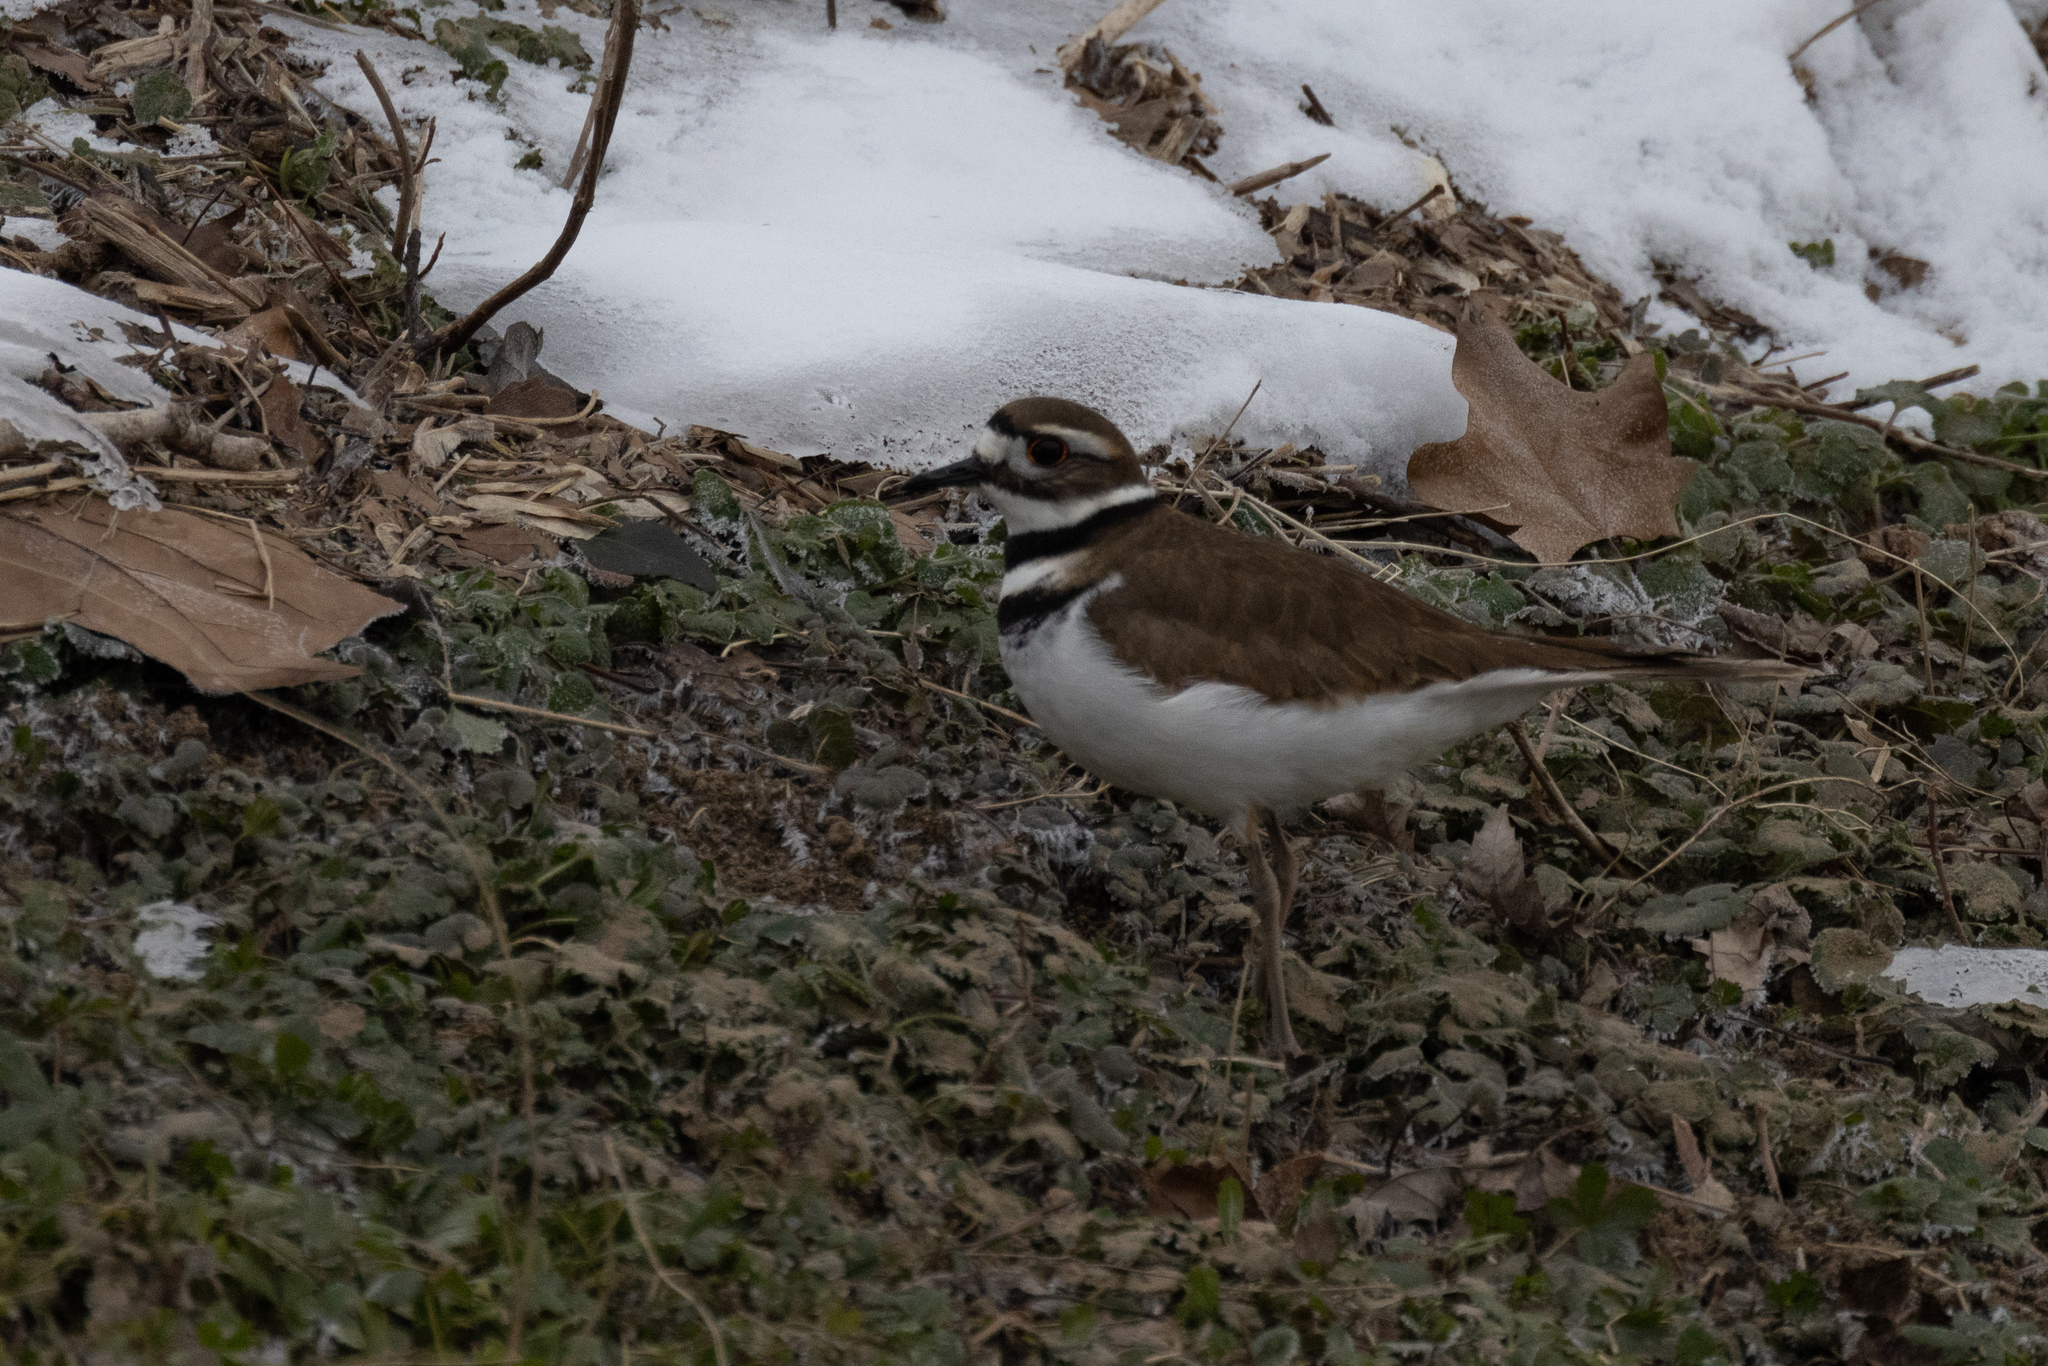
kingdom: Animalia
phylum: Chordata
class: Aves
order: Charadriiformes
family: Charadriidae
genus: Charadrius
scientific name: Charadrius vociferus
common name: Killdeer
